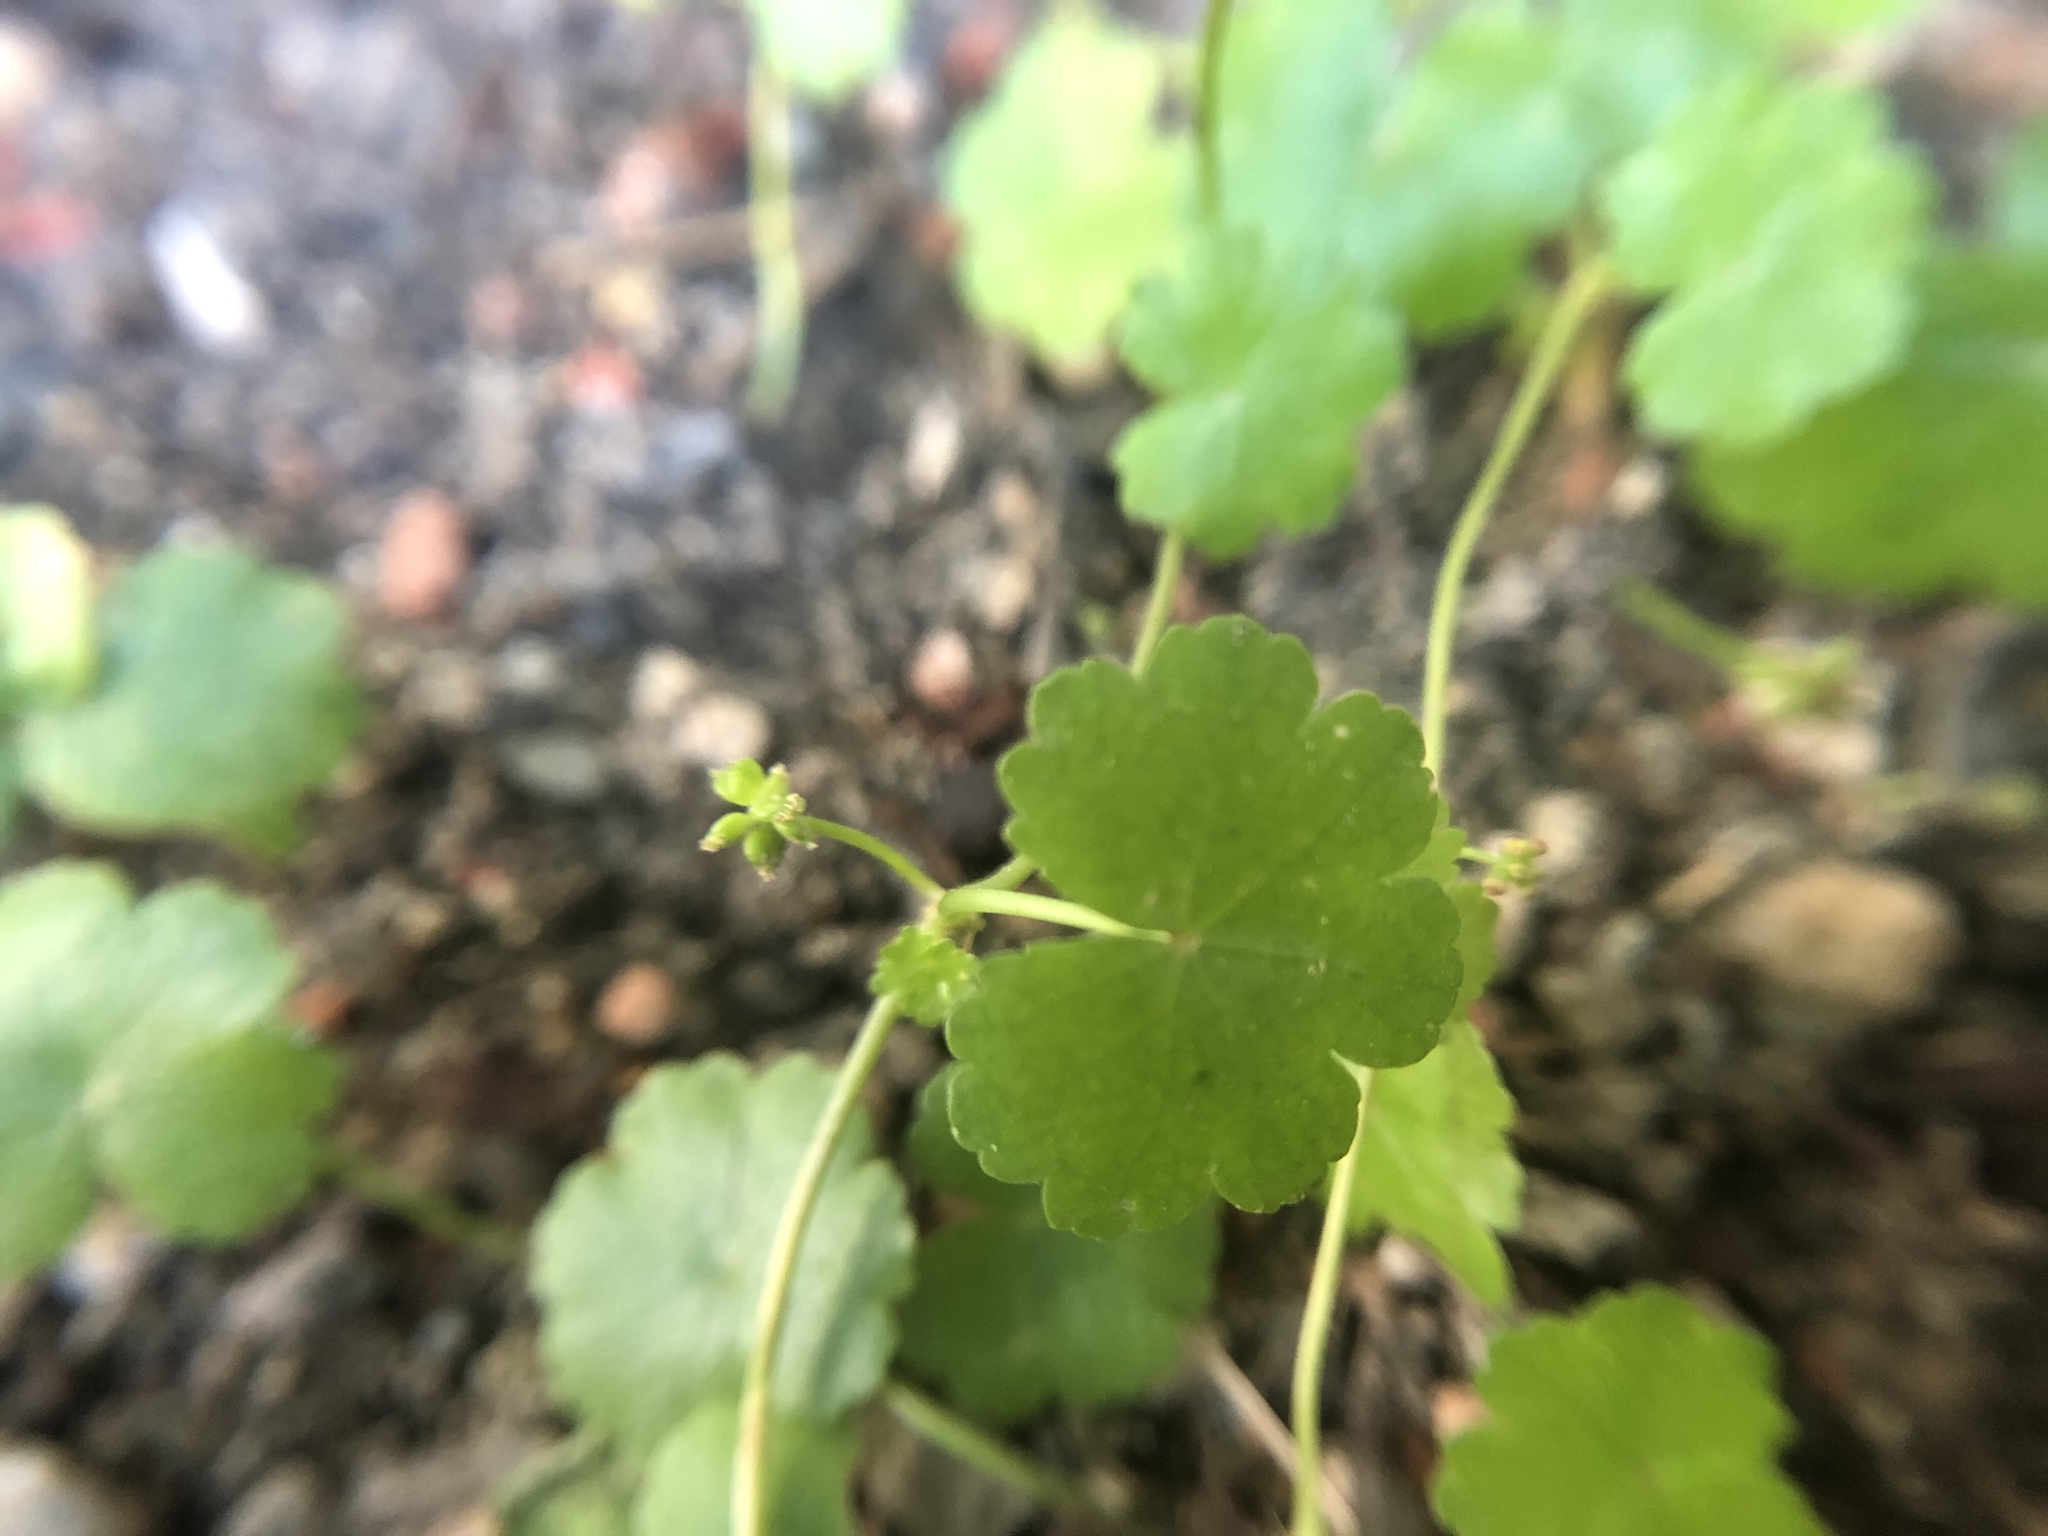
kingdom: Plantae
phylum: Tracheophyta
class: Magnoliopsida
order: Apiales
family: Araliaceae
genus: Hydrocotyle
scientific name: Hydrocotyle sibthorpioides
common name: Lawn marshpennywort
